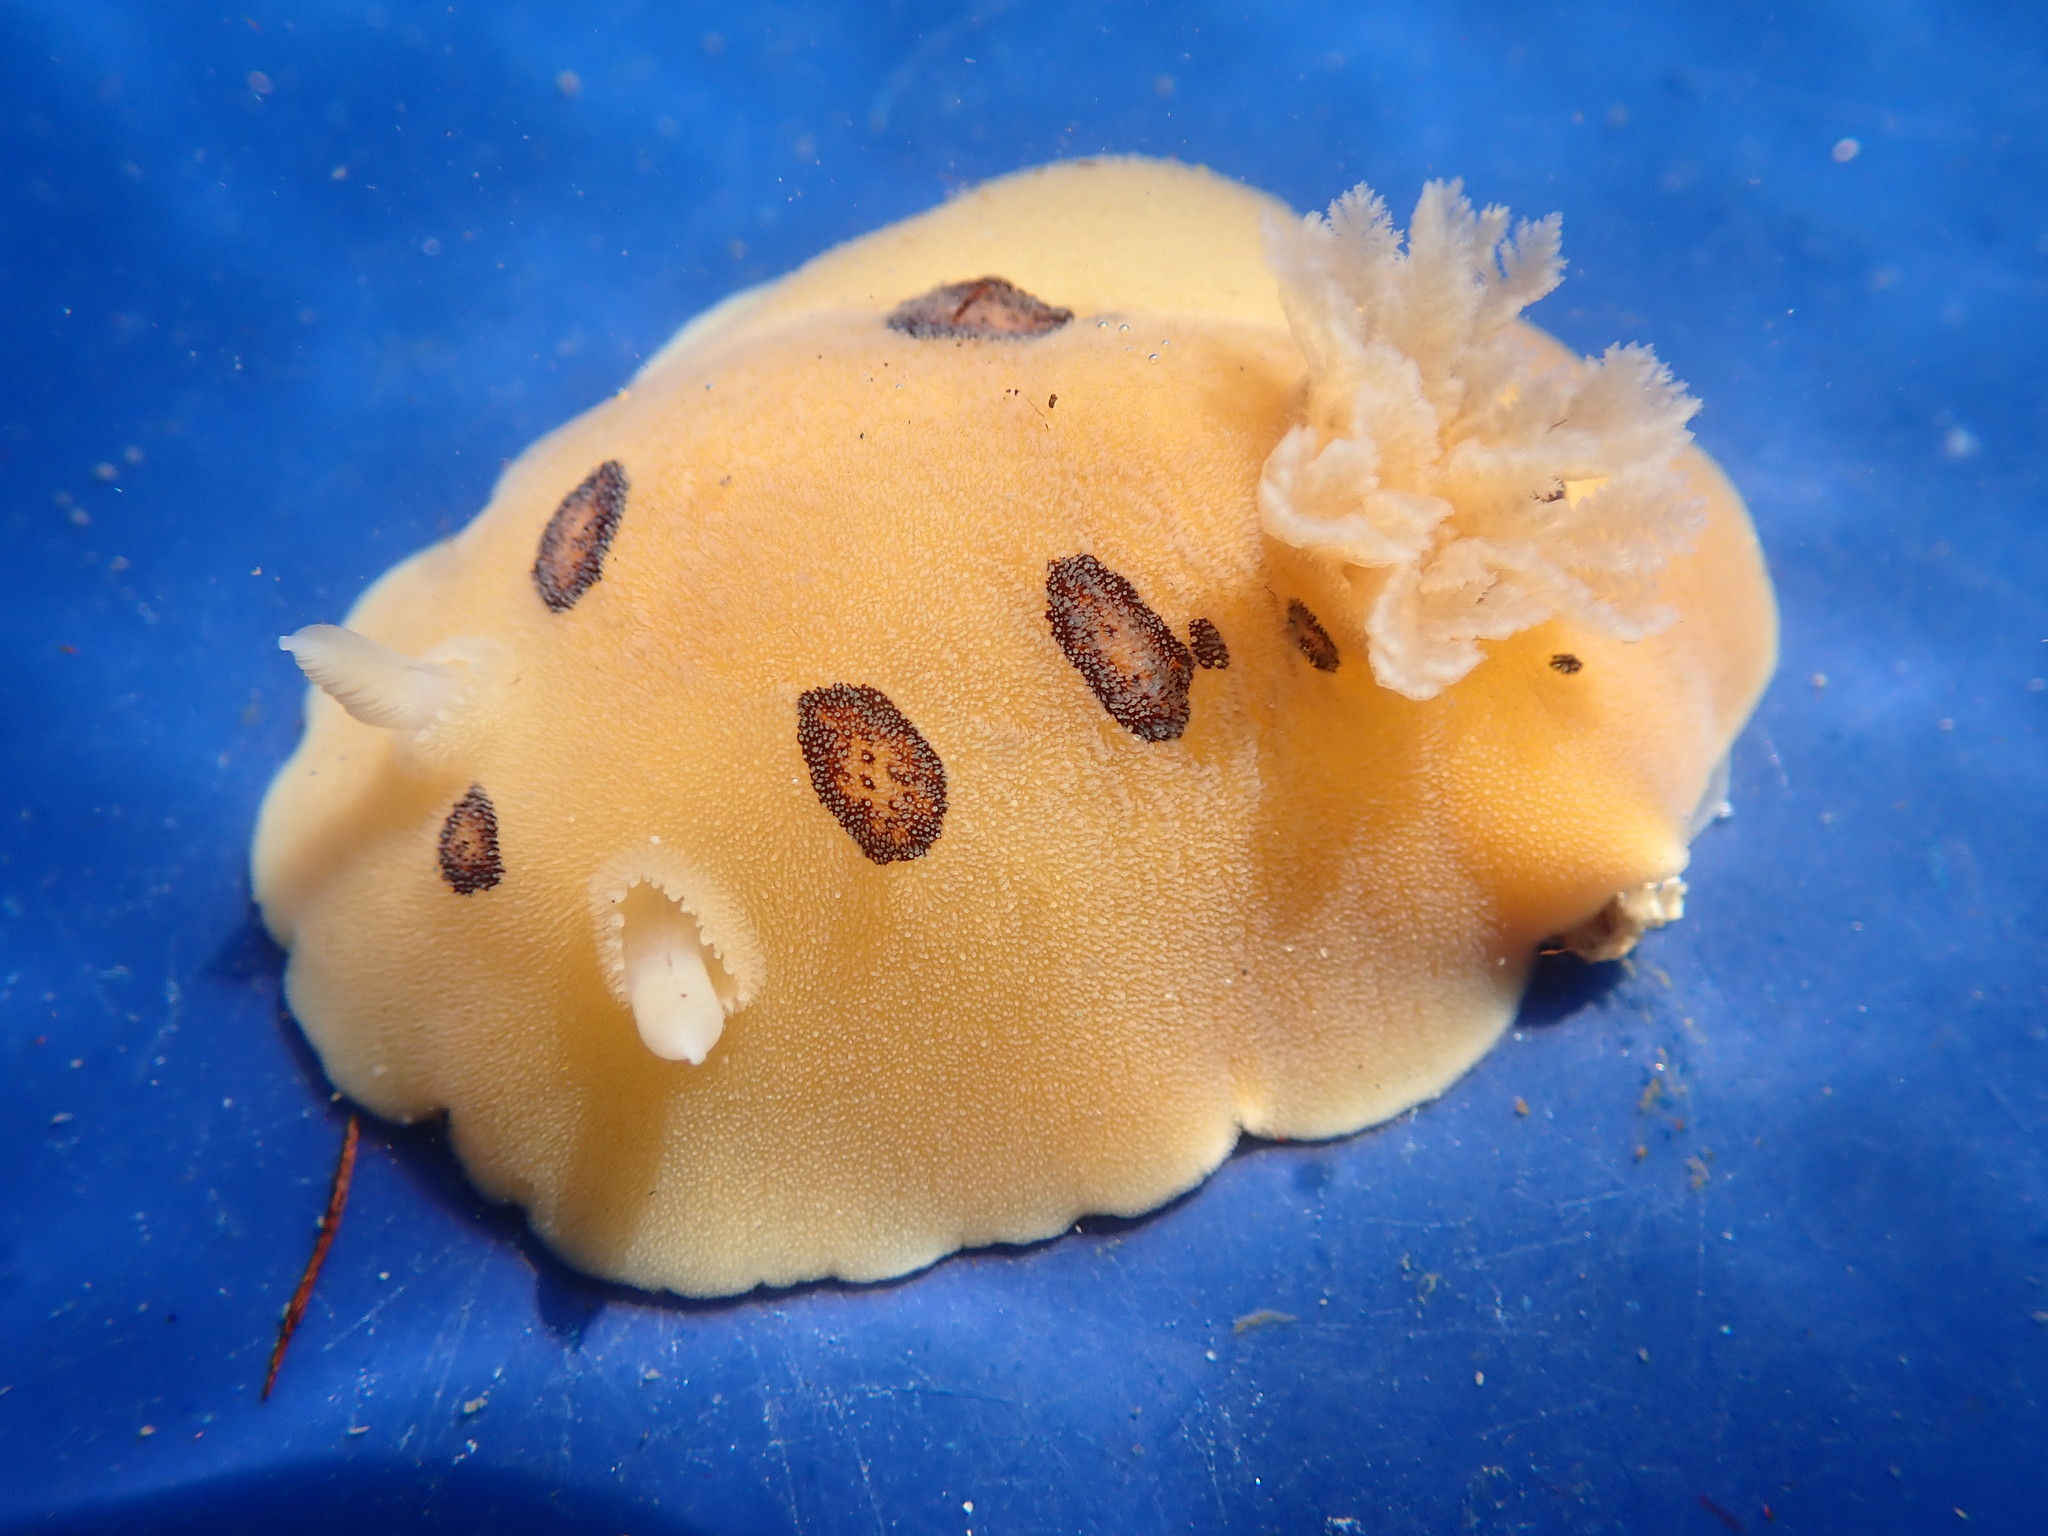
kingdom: Animalia
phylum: Mollusca
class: Gastropoda
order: Nudibranchia
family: Discodorididae
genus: Diaulula
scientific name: Diaulula sandiegensis
